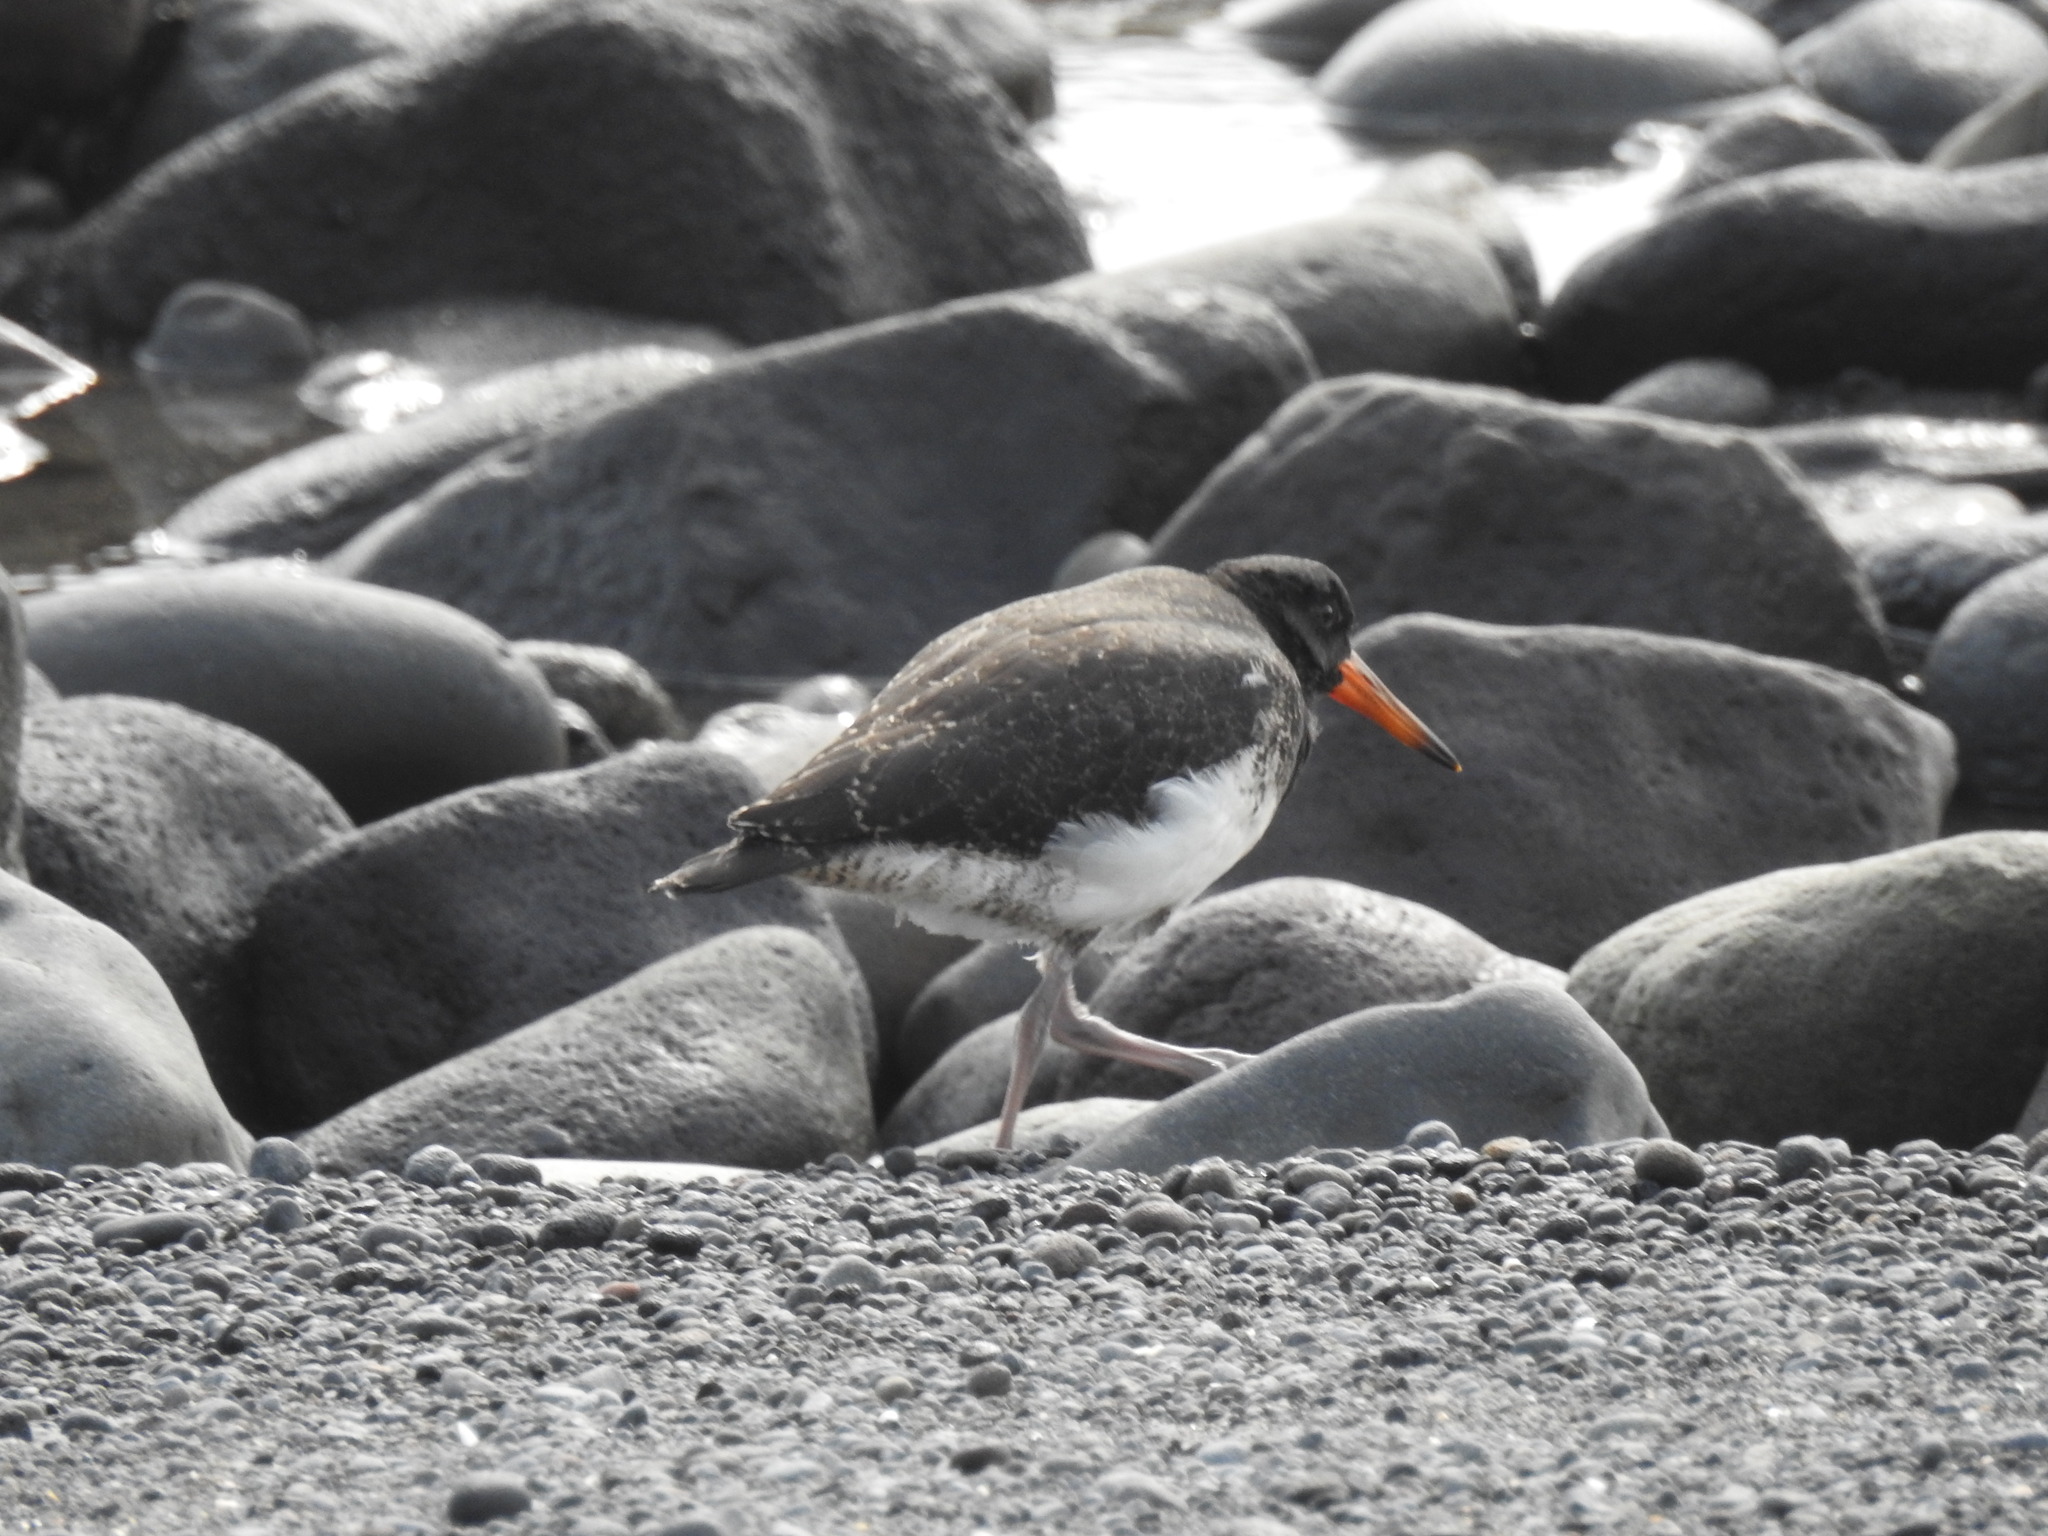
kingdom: Animalia
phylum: Chordata
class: Aves
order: Charadriiformes
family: Haematopodidae
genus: Haematopus
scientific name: Haematopus unicolor
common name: Variable oystercatcher
